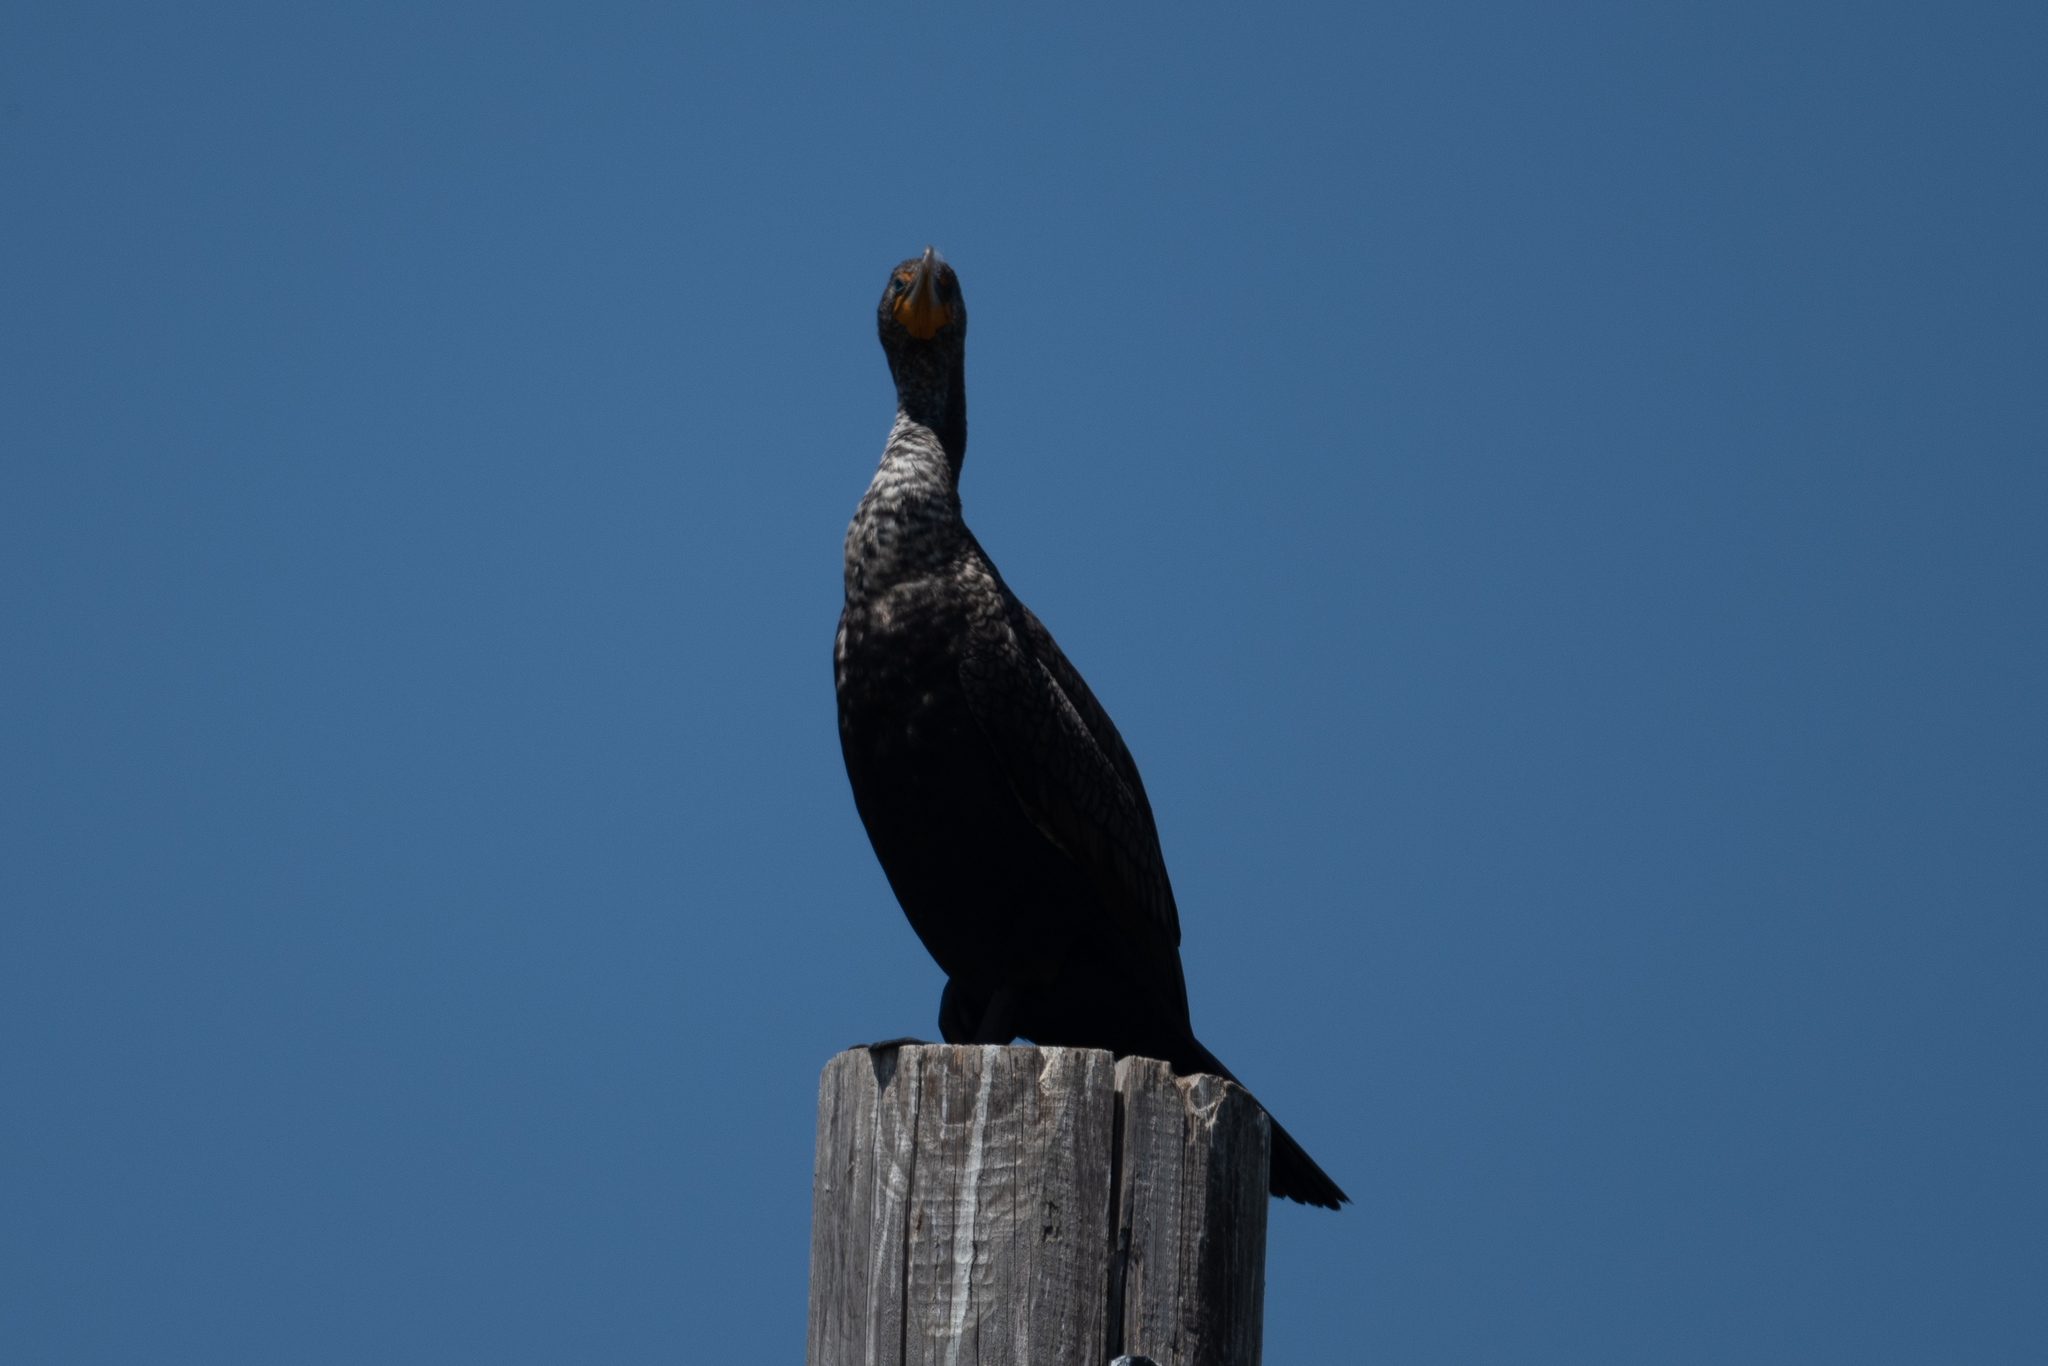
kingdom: Animalia
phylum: Chordata
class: Aves
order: Suliformes
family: Phalacrocoracidae
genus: Phalacrocorax
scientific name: Phalacrocorax auritus
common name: Double-crested cormorant
